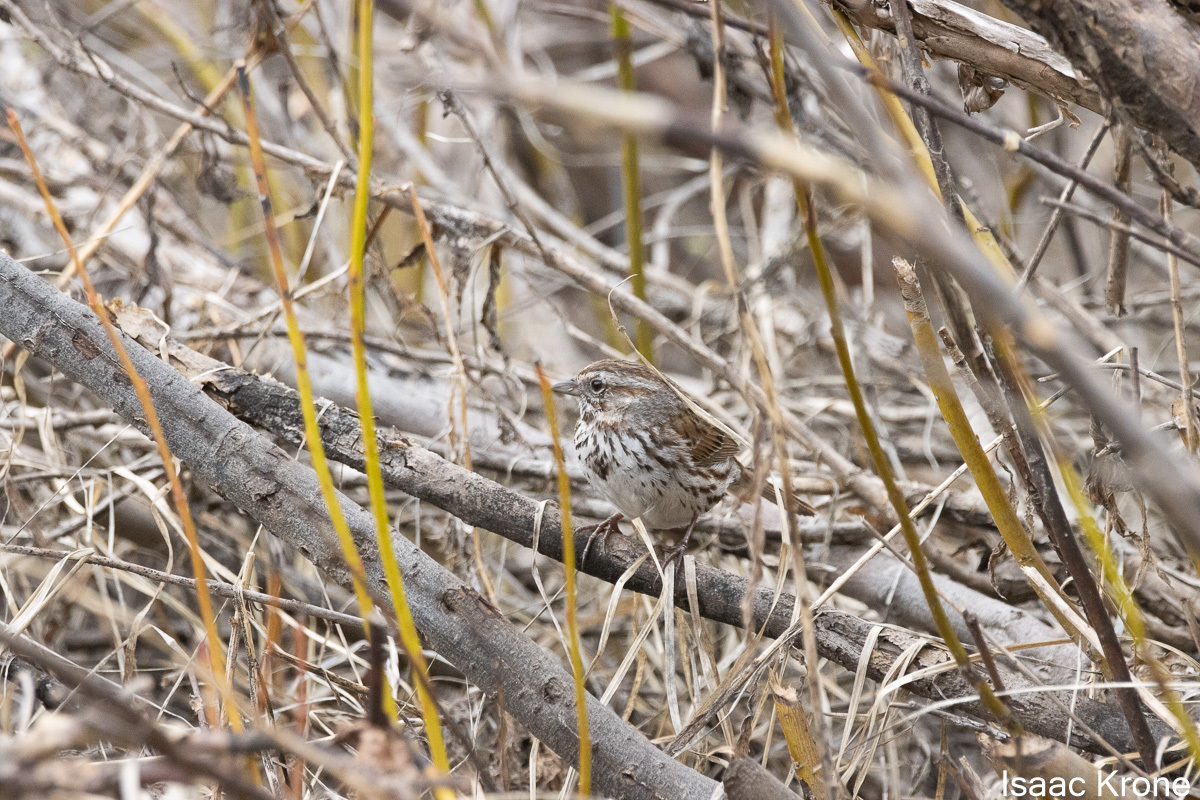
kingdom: Animalia
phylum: Chordata
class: Aves
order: Passeriformes
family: Passerellidae
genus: Melospiza
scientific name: Melospiza melodia
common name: Song sparrow
